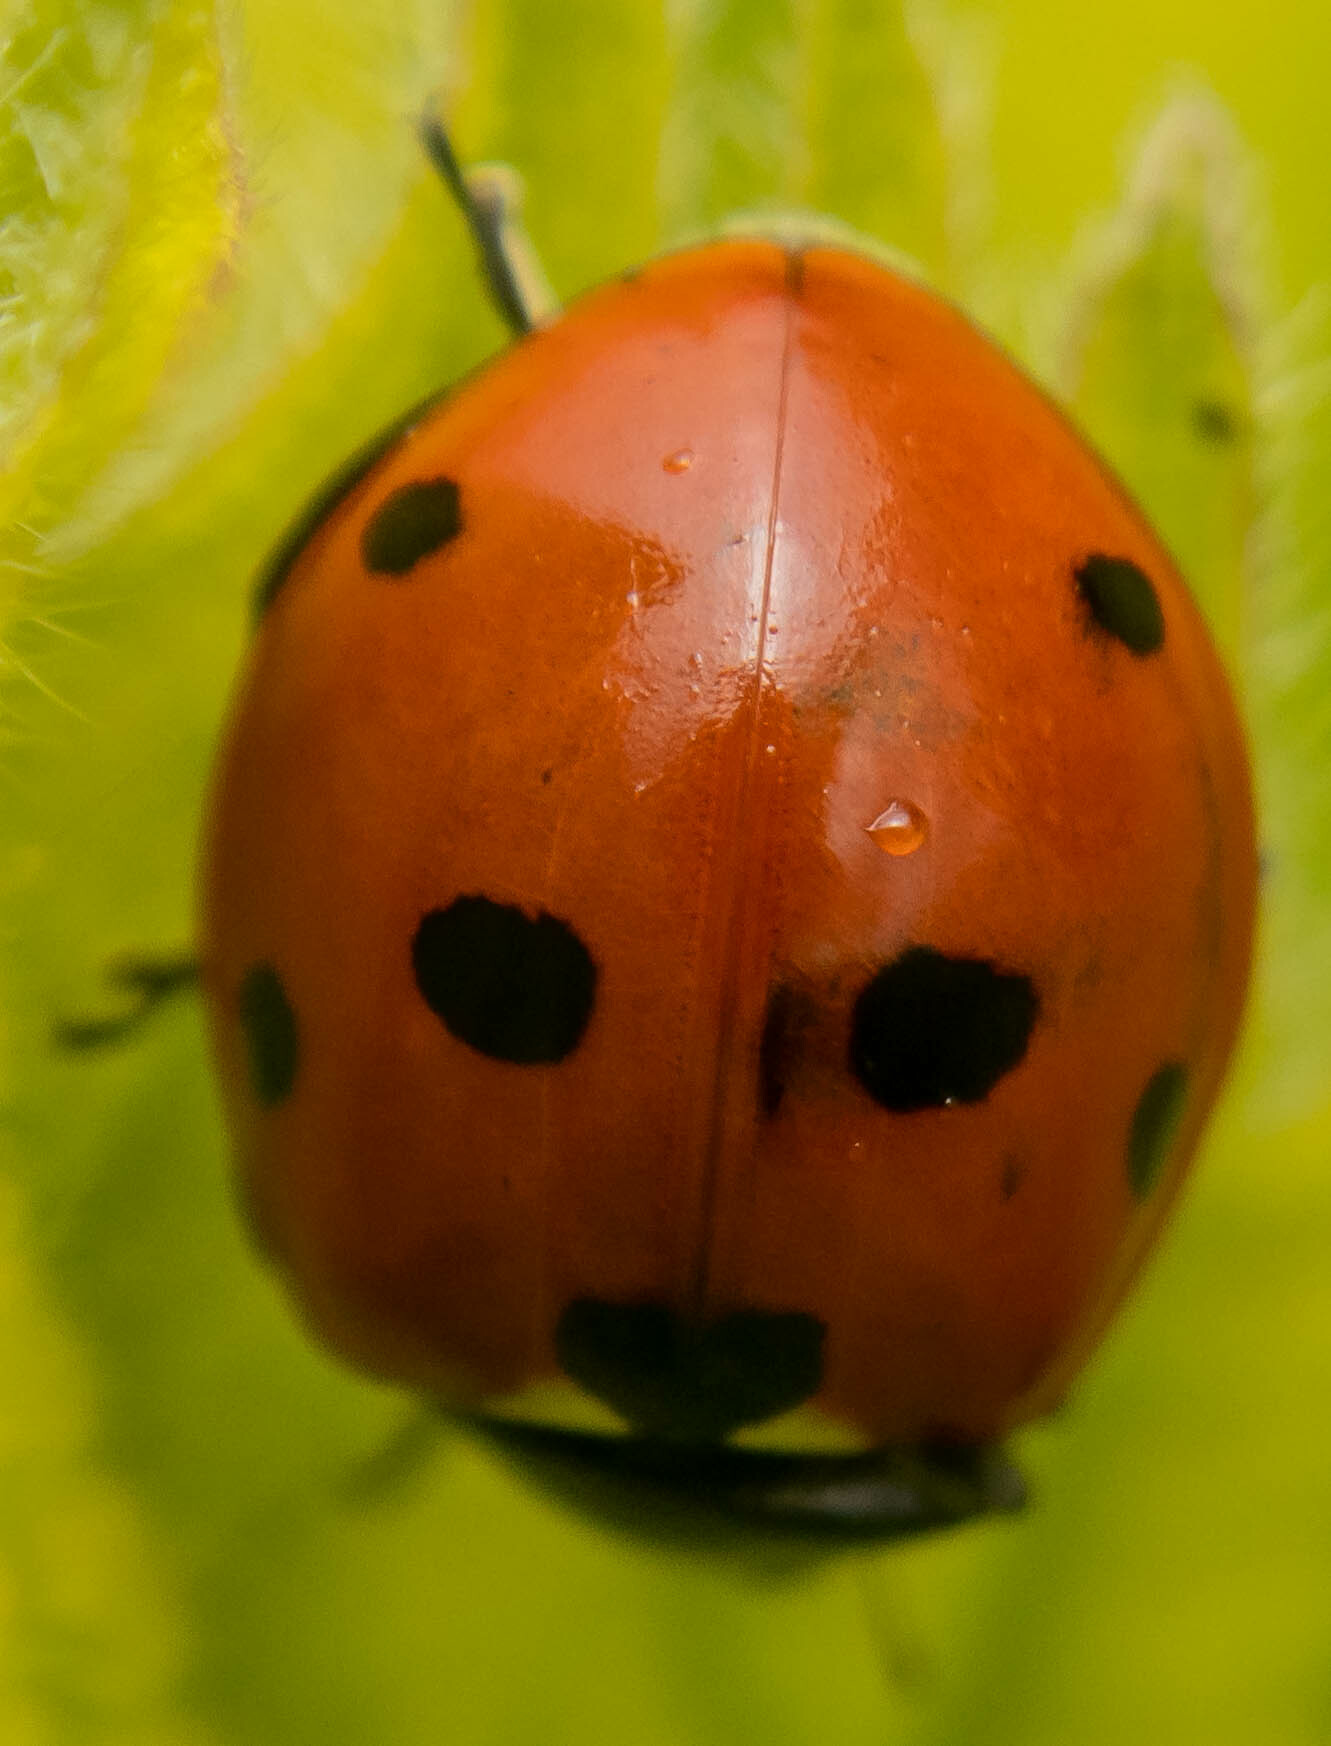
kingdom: Animalia
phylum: Arthropoda
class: Insecta
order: Coleoptera
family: Coccinellidae
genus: Coccinella
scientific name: Coccinella septempunctata
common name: Sevenspotted lady beetle
